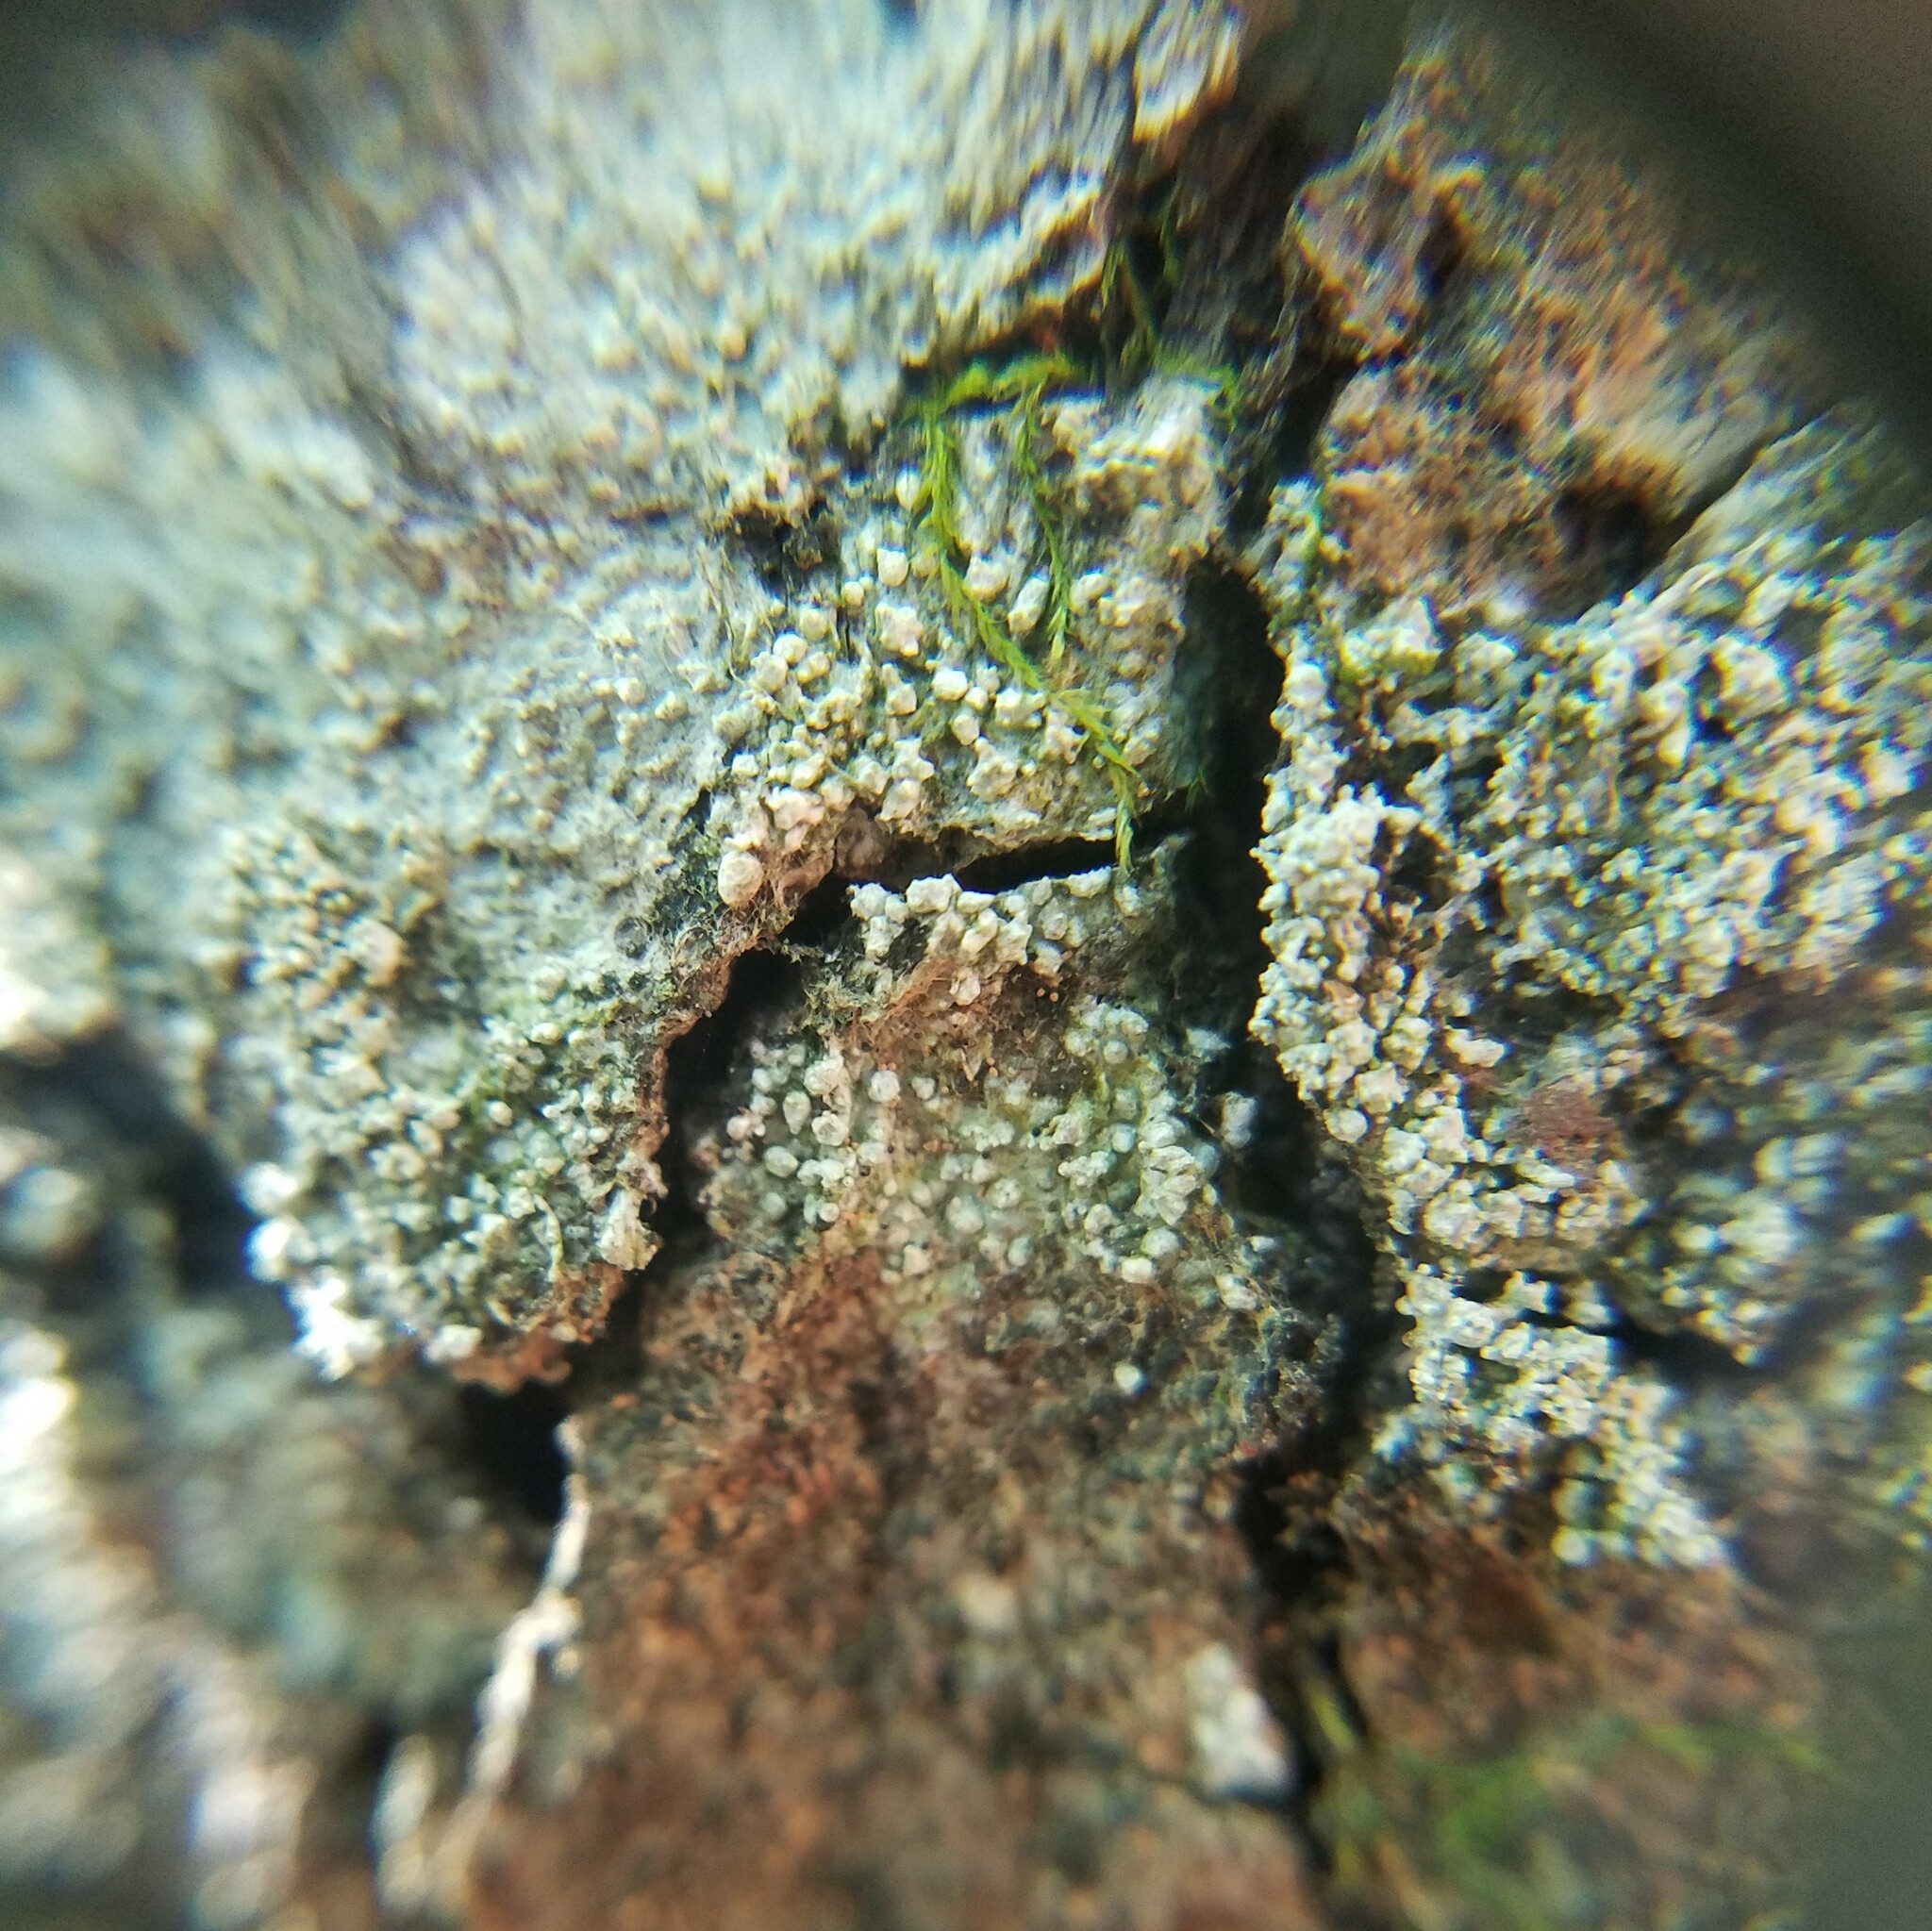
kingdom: Fungi
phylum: Ascomycota
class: Lecanoromycetes
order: Pertusariales
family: Pertusariaceae
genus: Lepra
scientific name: Lepra amara
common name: Bitter wart lichen
